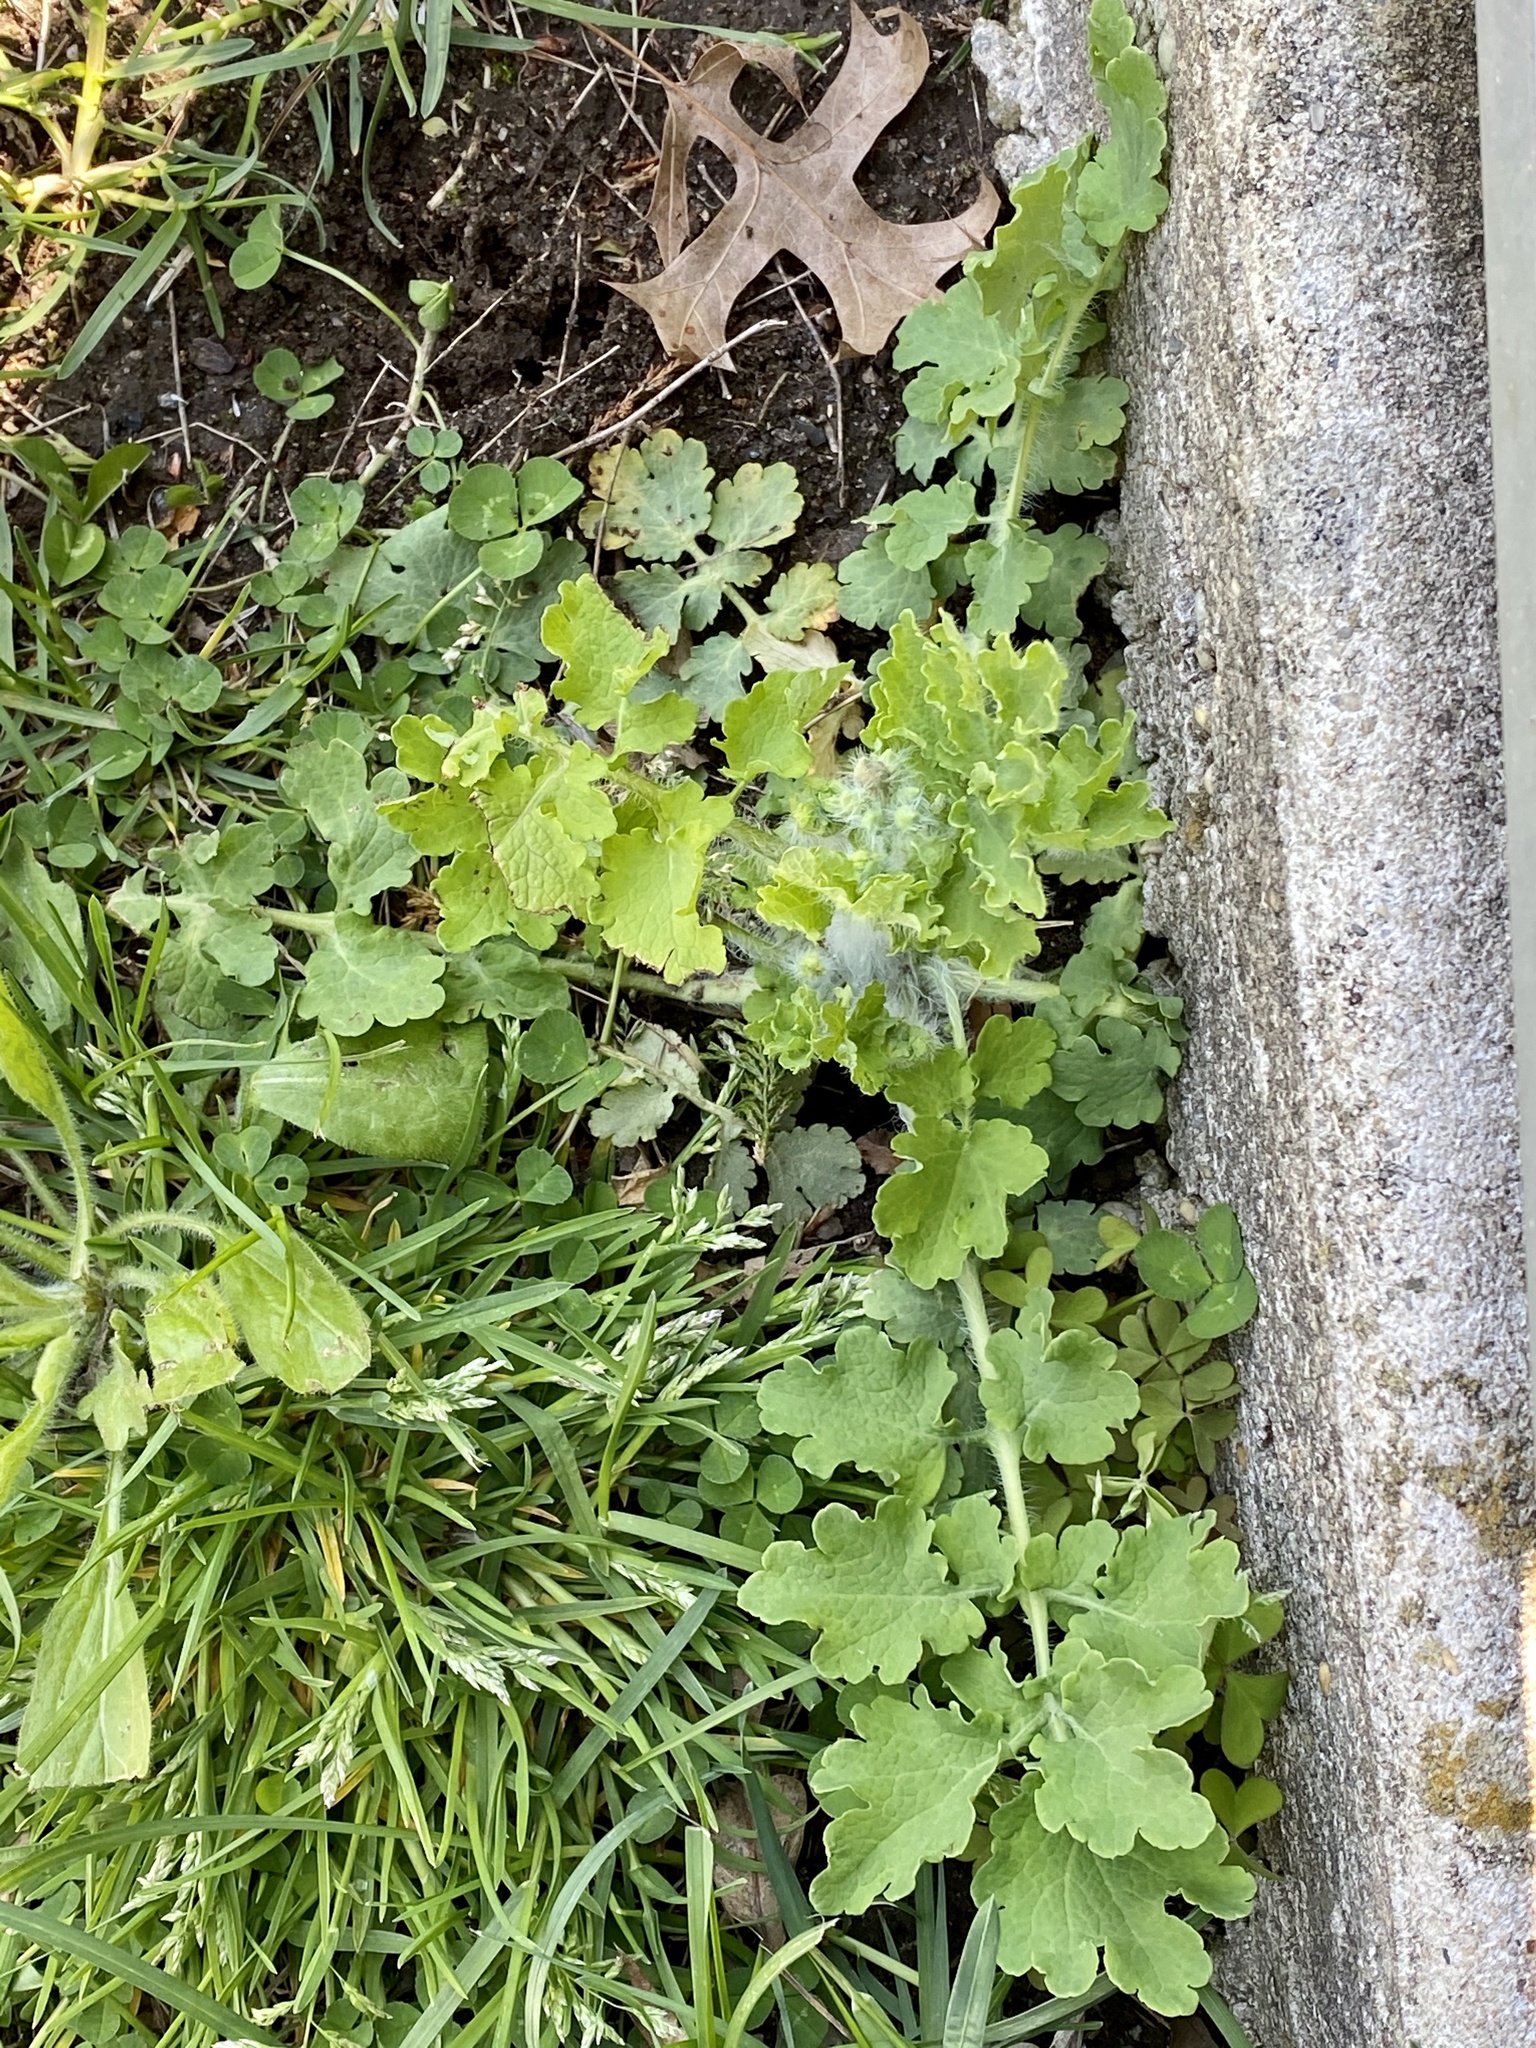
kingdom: Plantae
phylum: Tracheophyta
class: Magnoliopsida
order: Ranunculales
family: Papaveraceae
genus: Chelidonium
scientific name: Chelidonium majus
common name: Greater celandine
